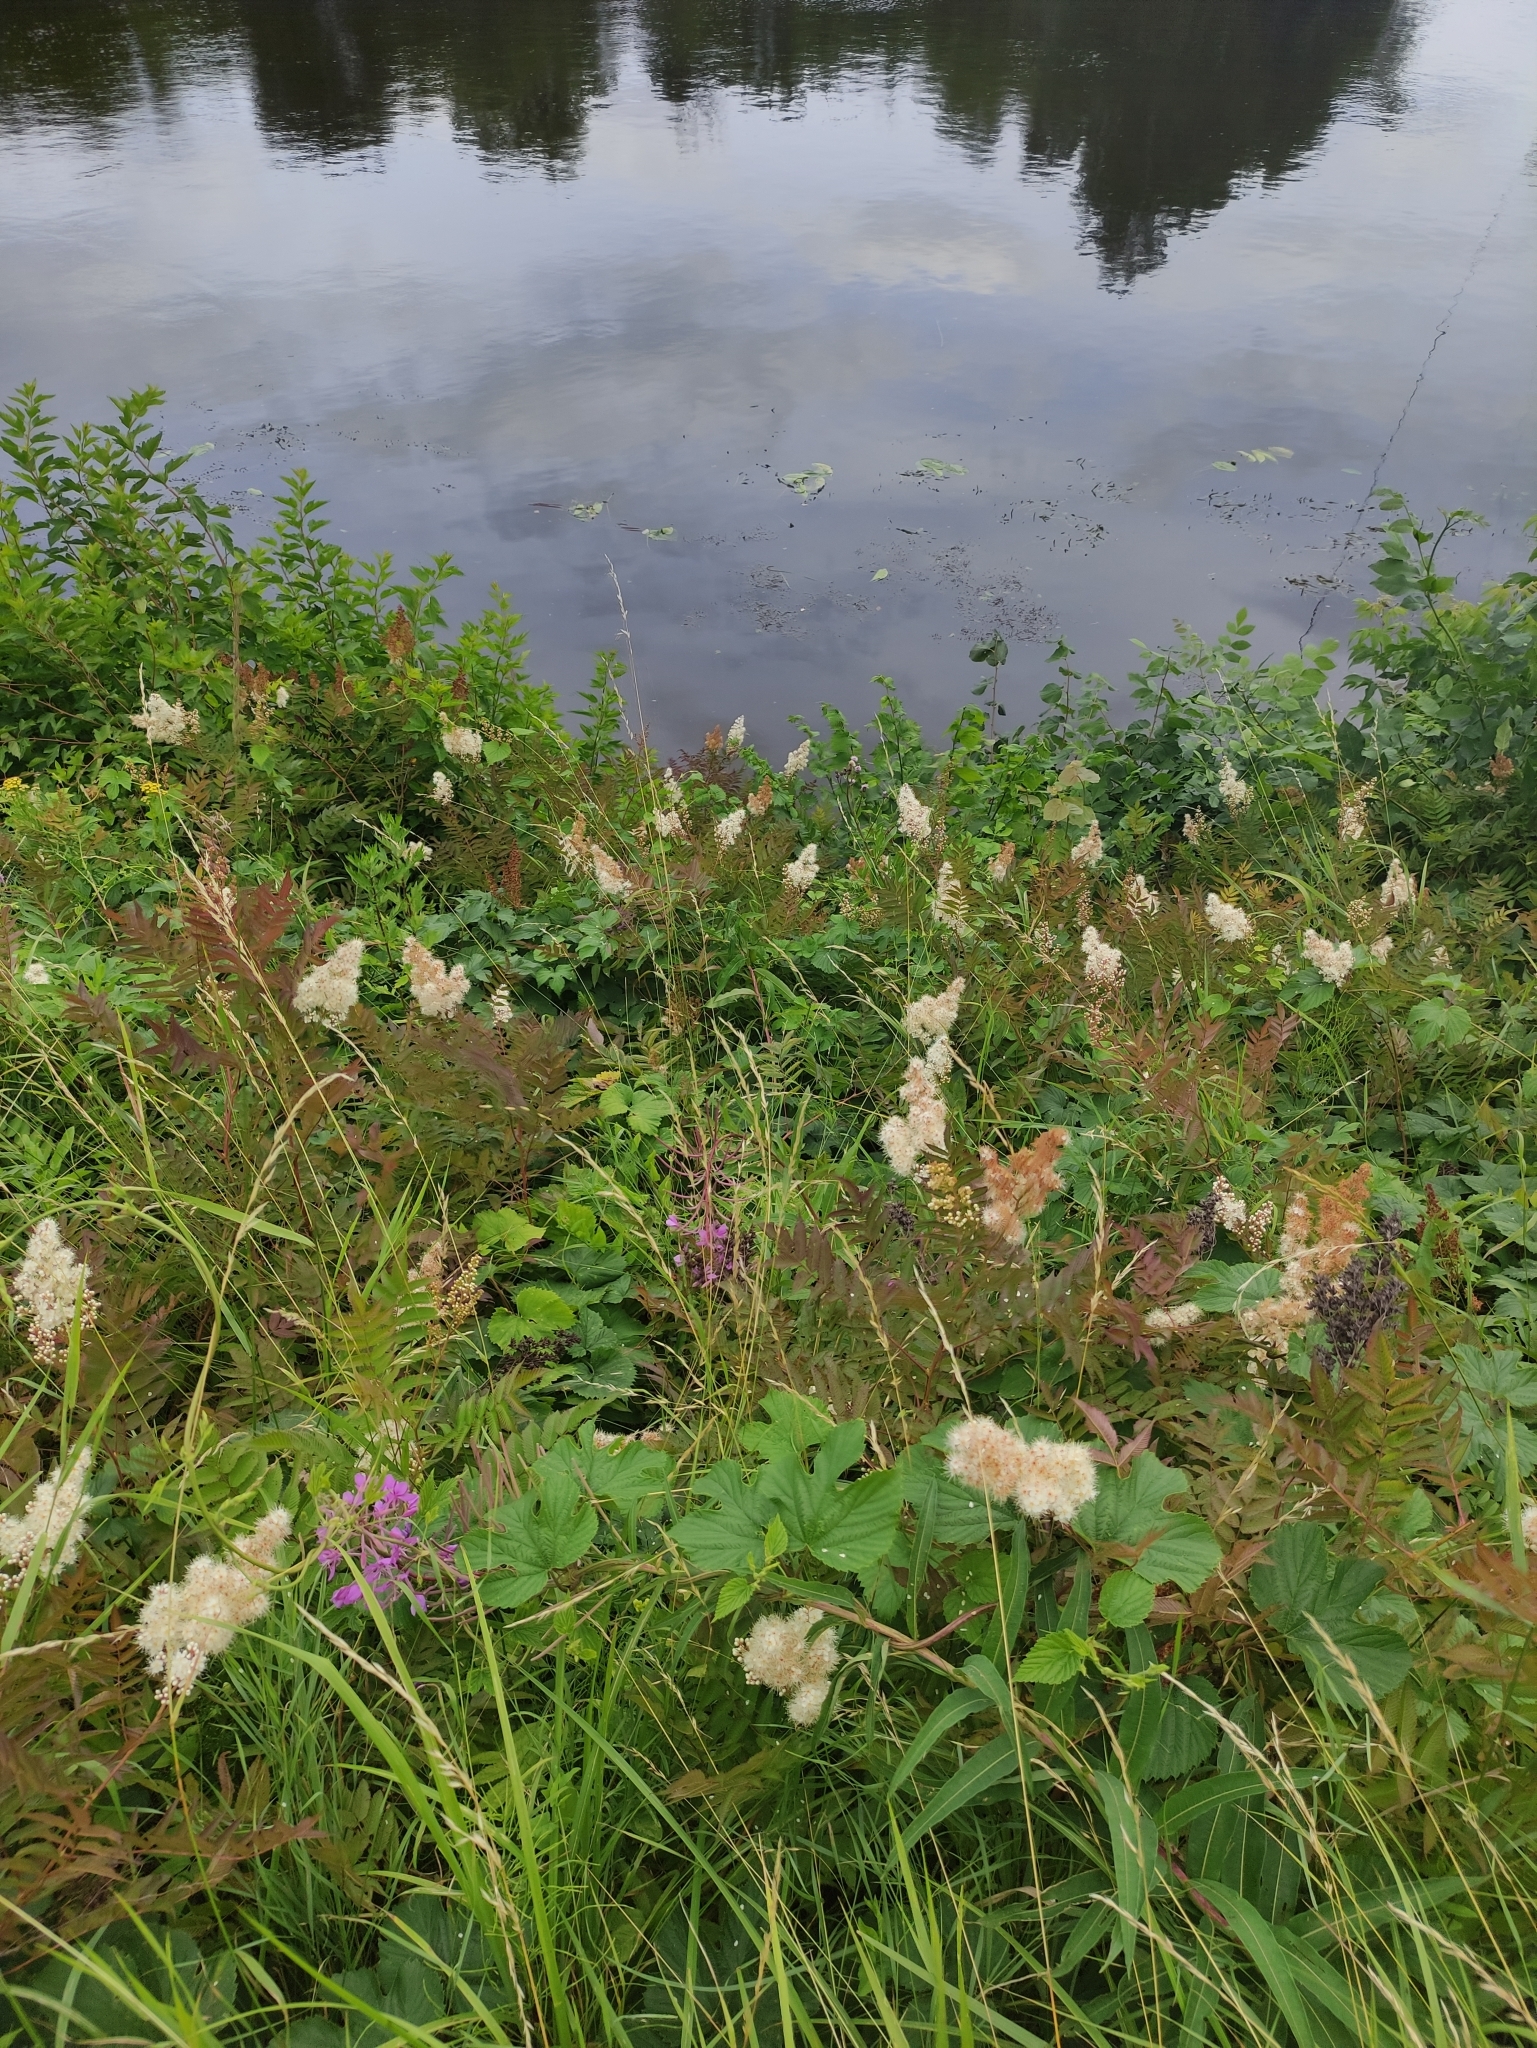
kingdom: Plantae
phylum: Tracheophyta
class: Magnoliopsida
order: Rosales
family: Rosaceae
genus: Sorbaria
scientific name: Sorbaria sorbifolia
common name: False spiraea
